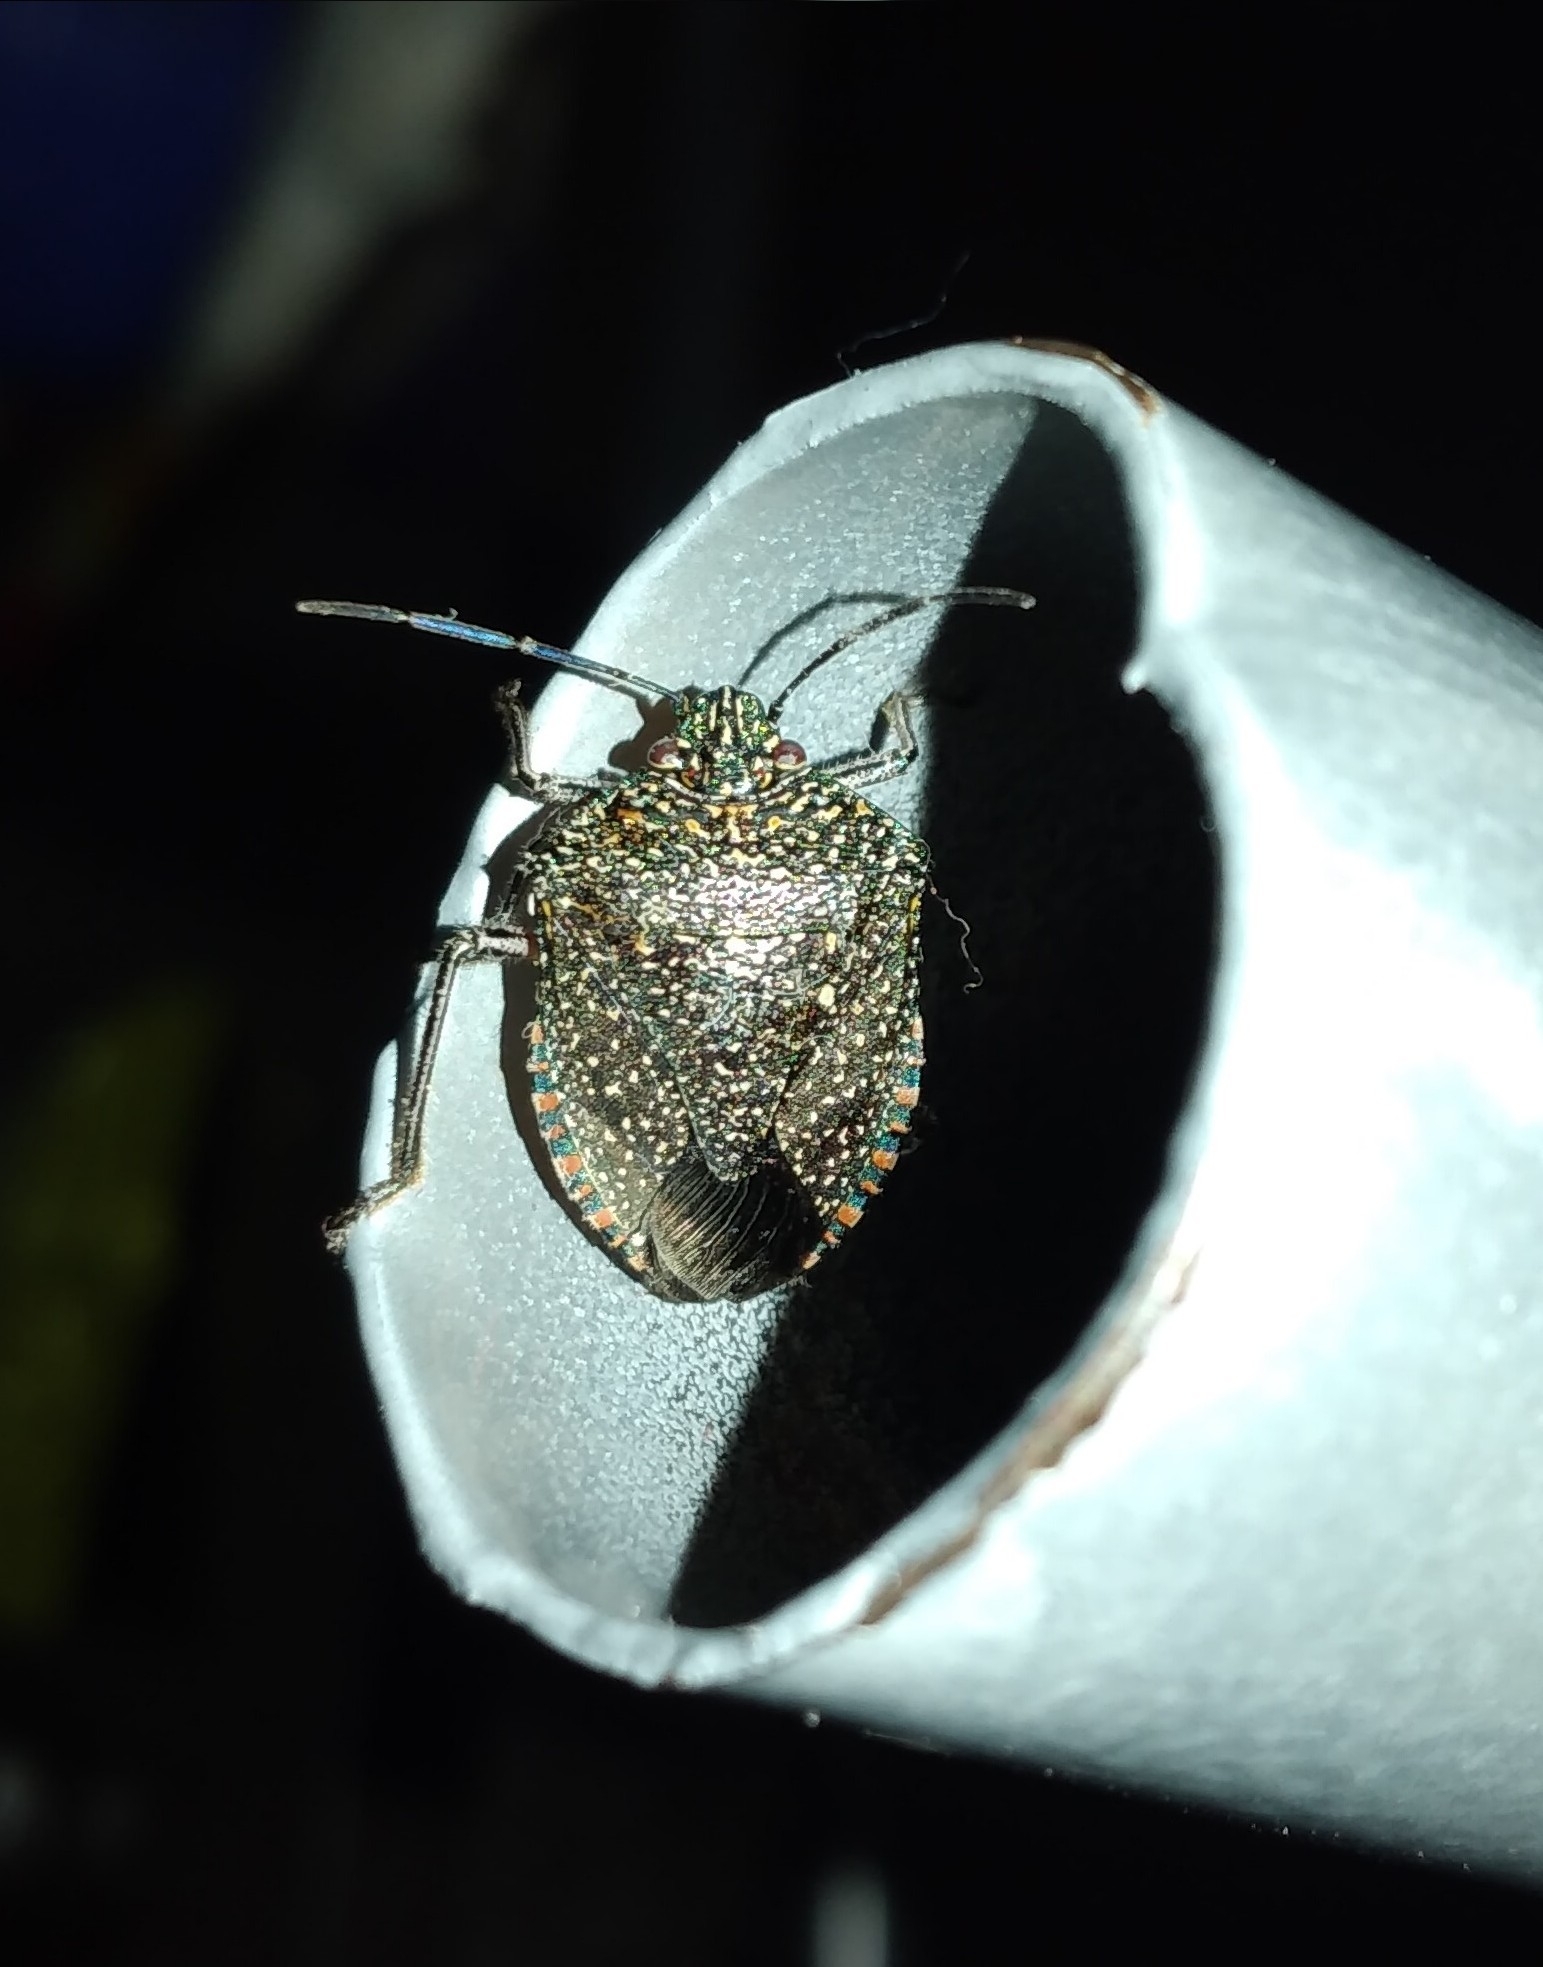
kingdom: Animalia
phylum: Arthropoda
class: Insecta
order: Hemiptera
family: Pentatomidae
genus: Pellaea
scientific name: Pellaea stictica
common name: Stink bug
